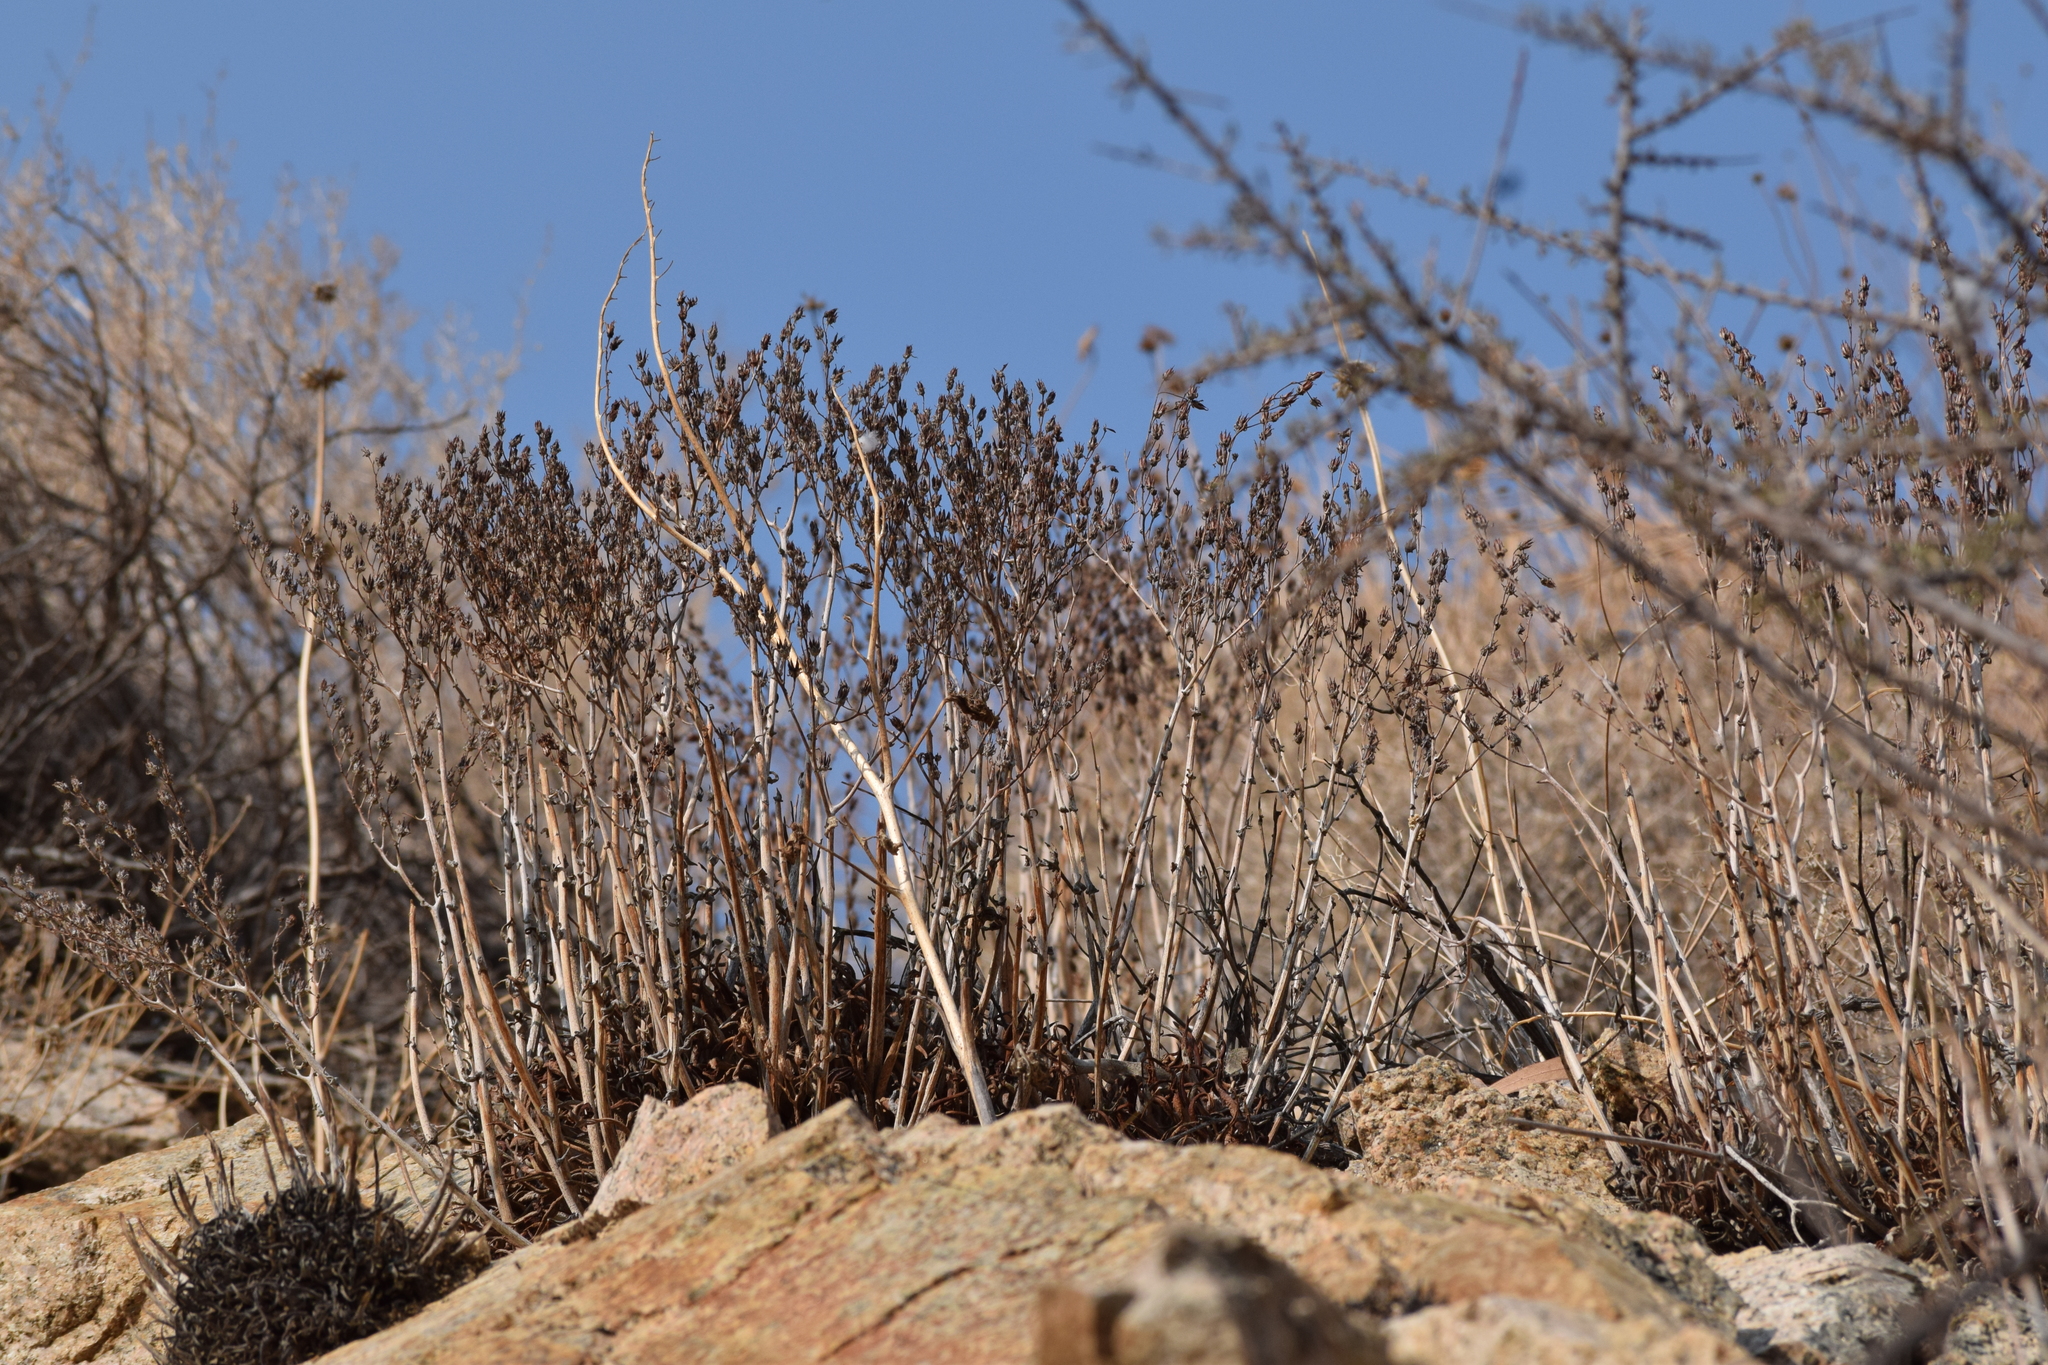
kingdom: Plantae
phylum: Tracheophyta
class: Magnoliopsida
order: Saxifragales
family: Crassulaceae
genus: Dudleya
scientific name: Dudleya saxosa
